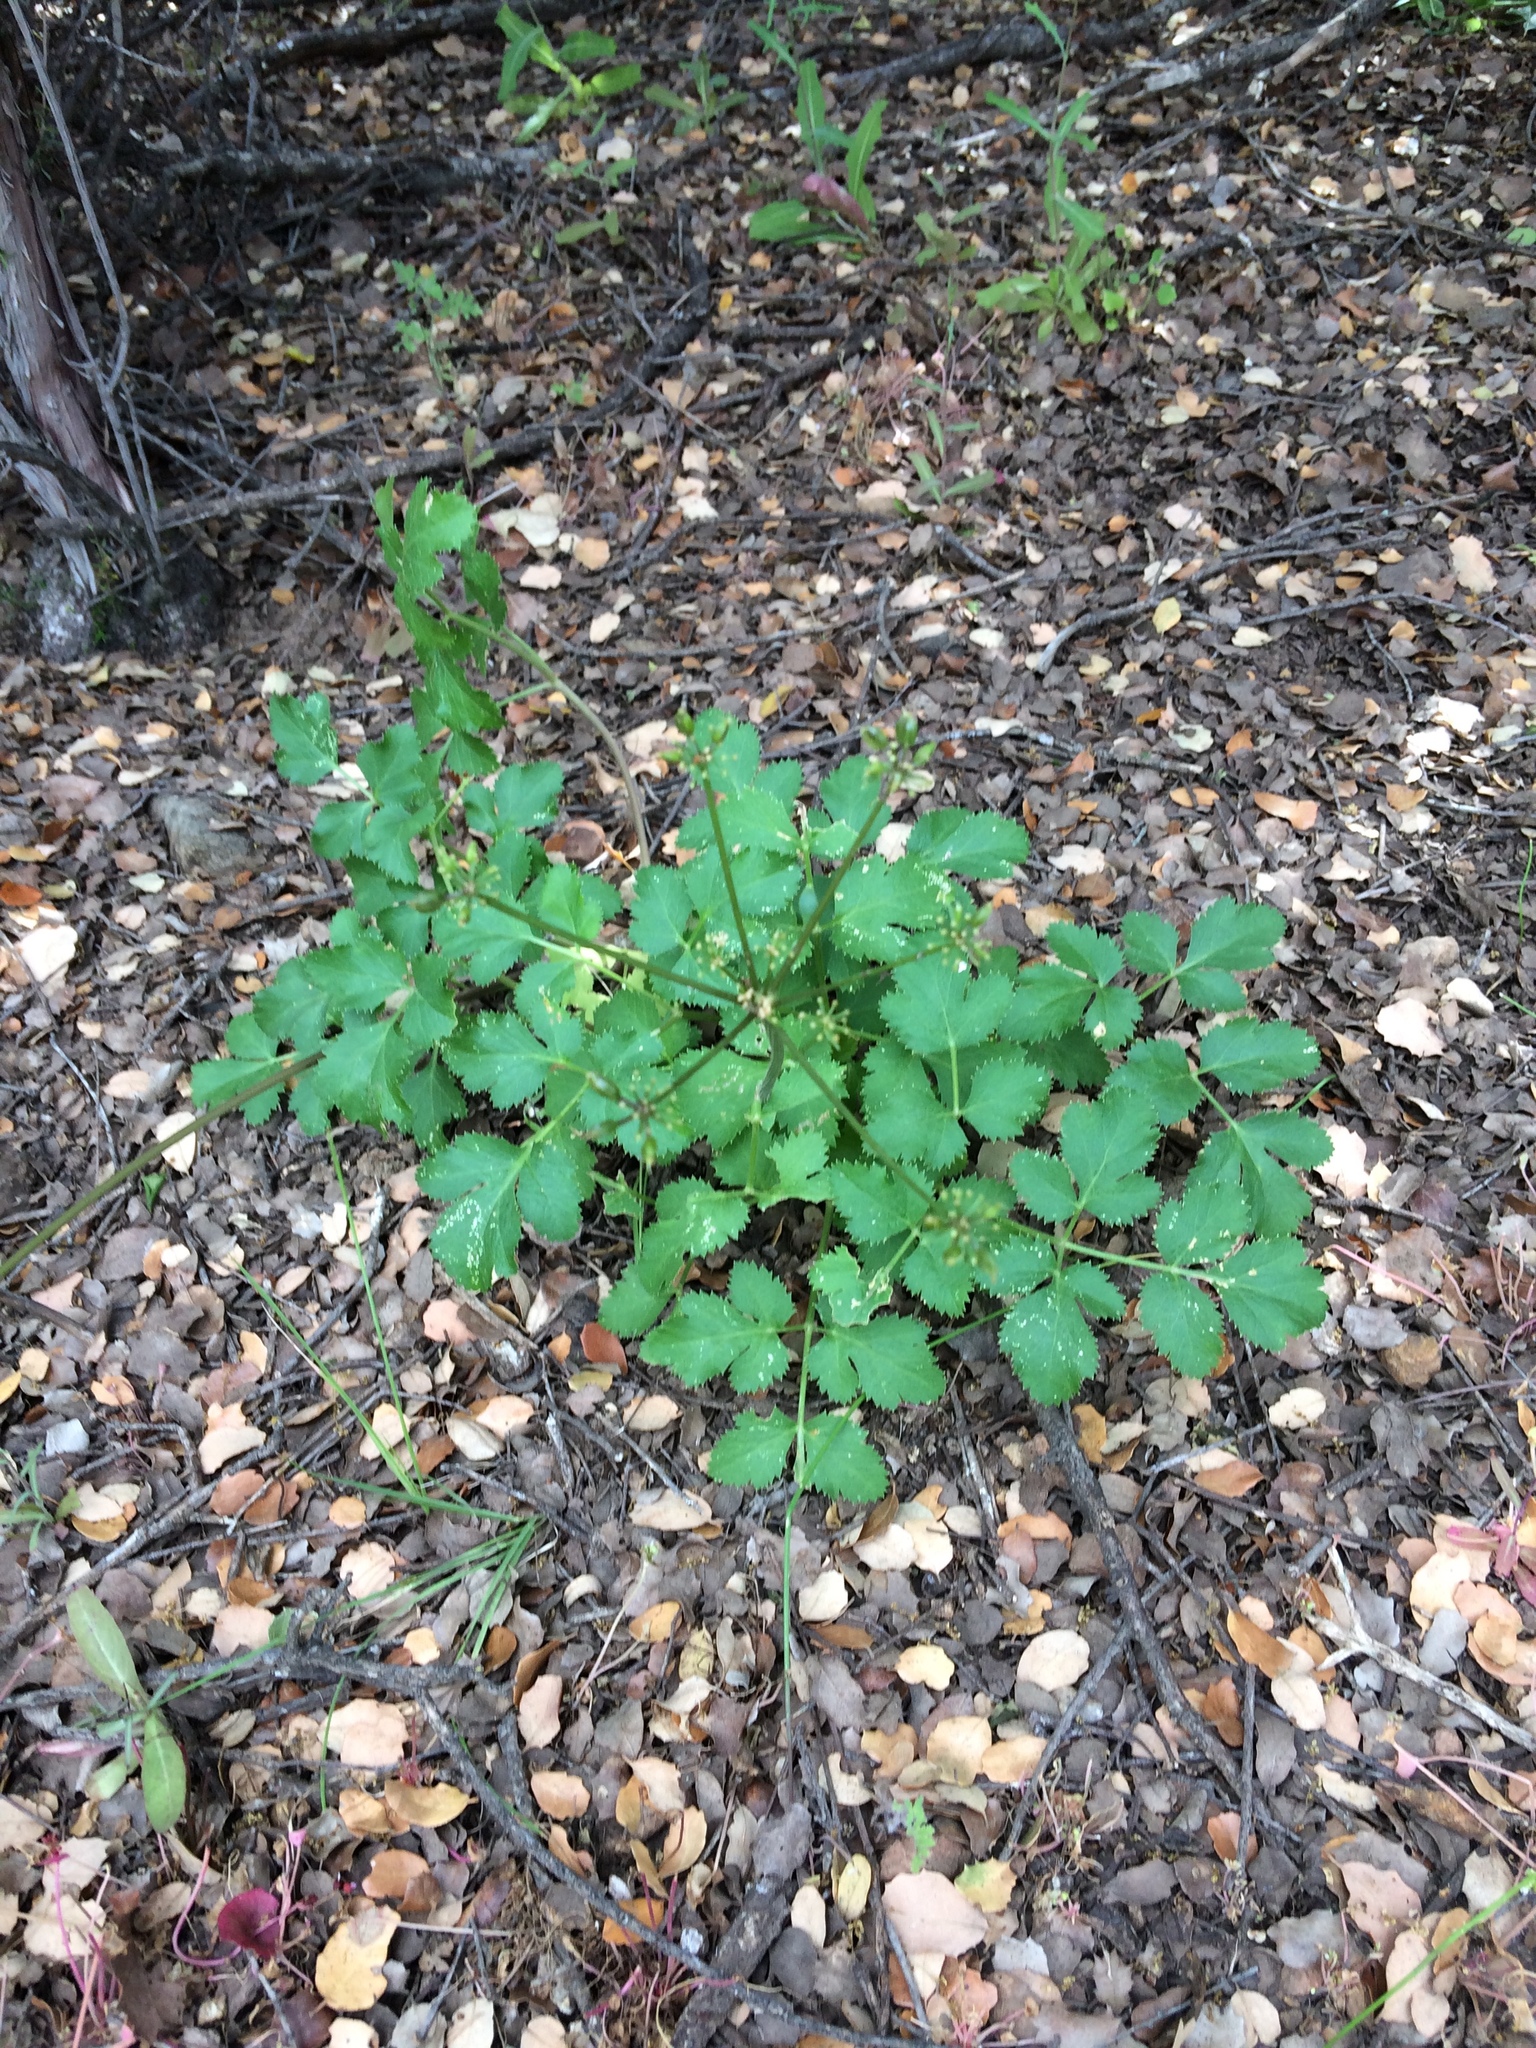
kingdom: Plantae
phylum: Tracheophyta
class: Magnoliopsida
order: Apiales
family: Apiaceae
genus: Lomatium
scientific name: Lomatium lucidum
